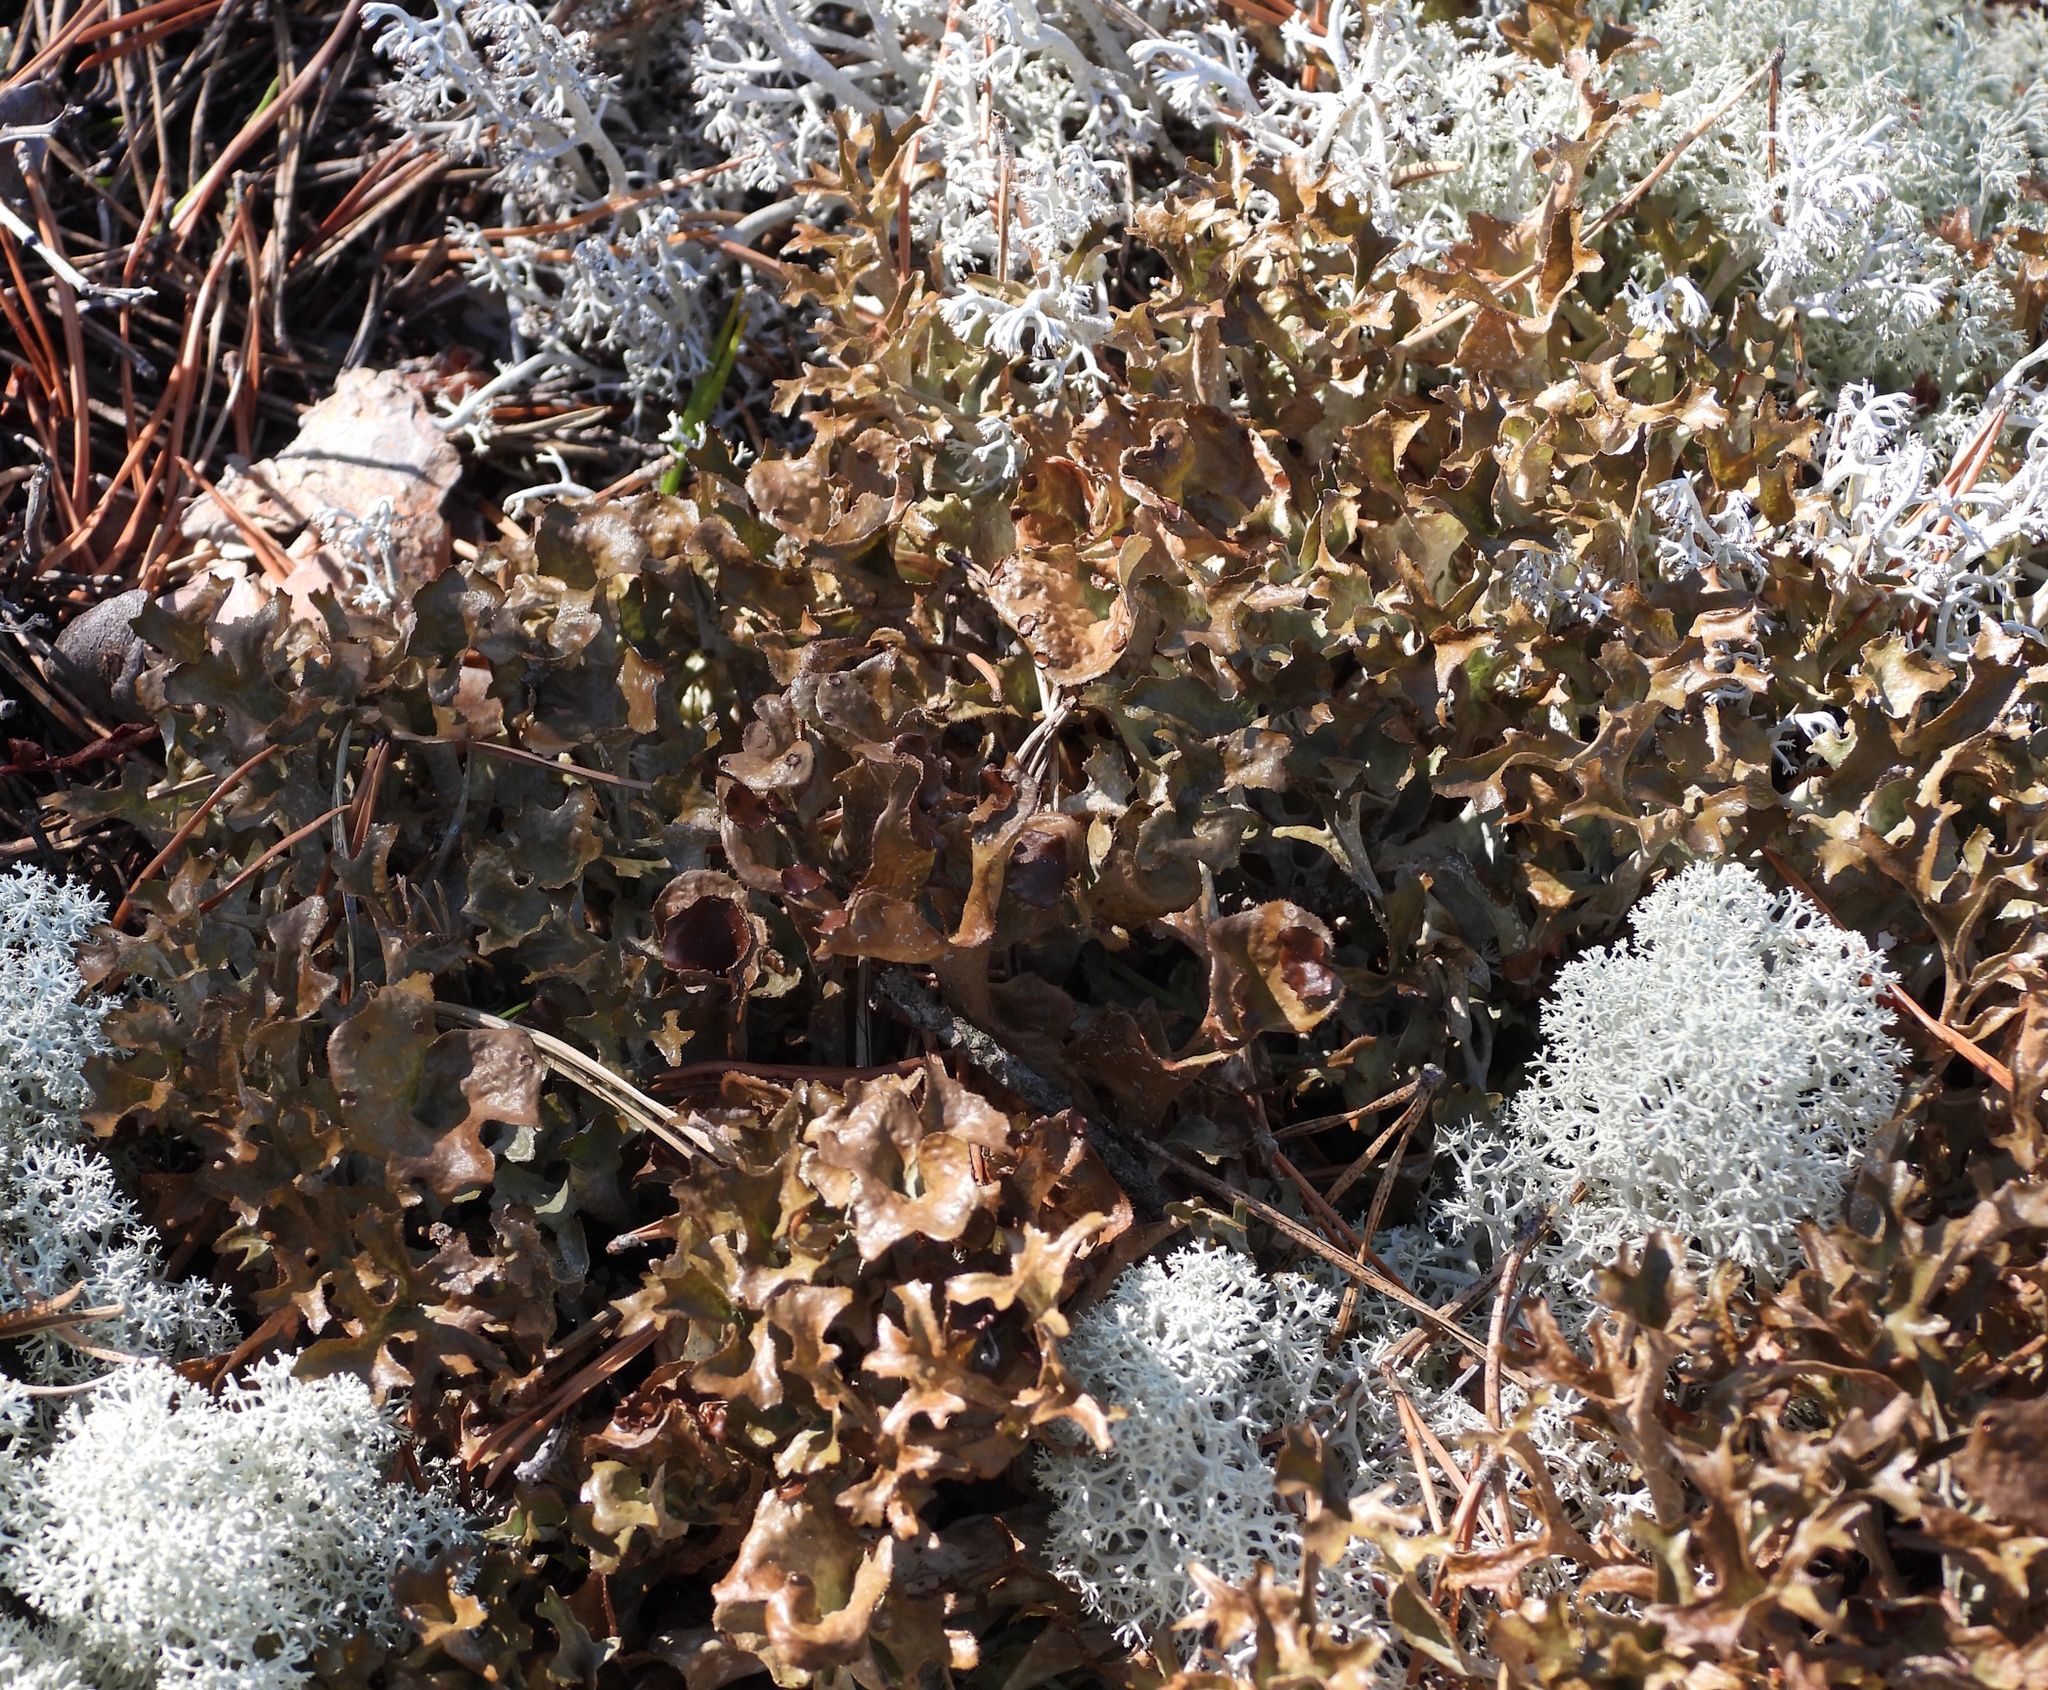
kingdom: Fungi
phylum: Ascomycota
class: Lecanoromycetes
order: Lecanorales
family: Parmeliaceae
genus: Cetraria
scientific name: Cetraria islandica
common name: Iceland lichen
